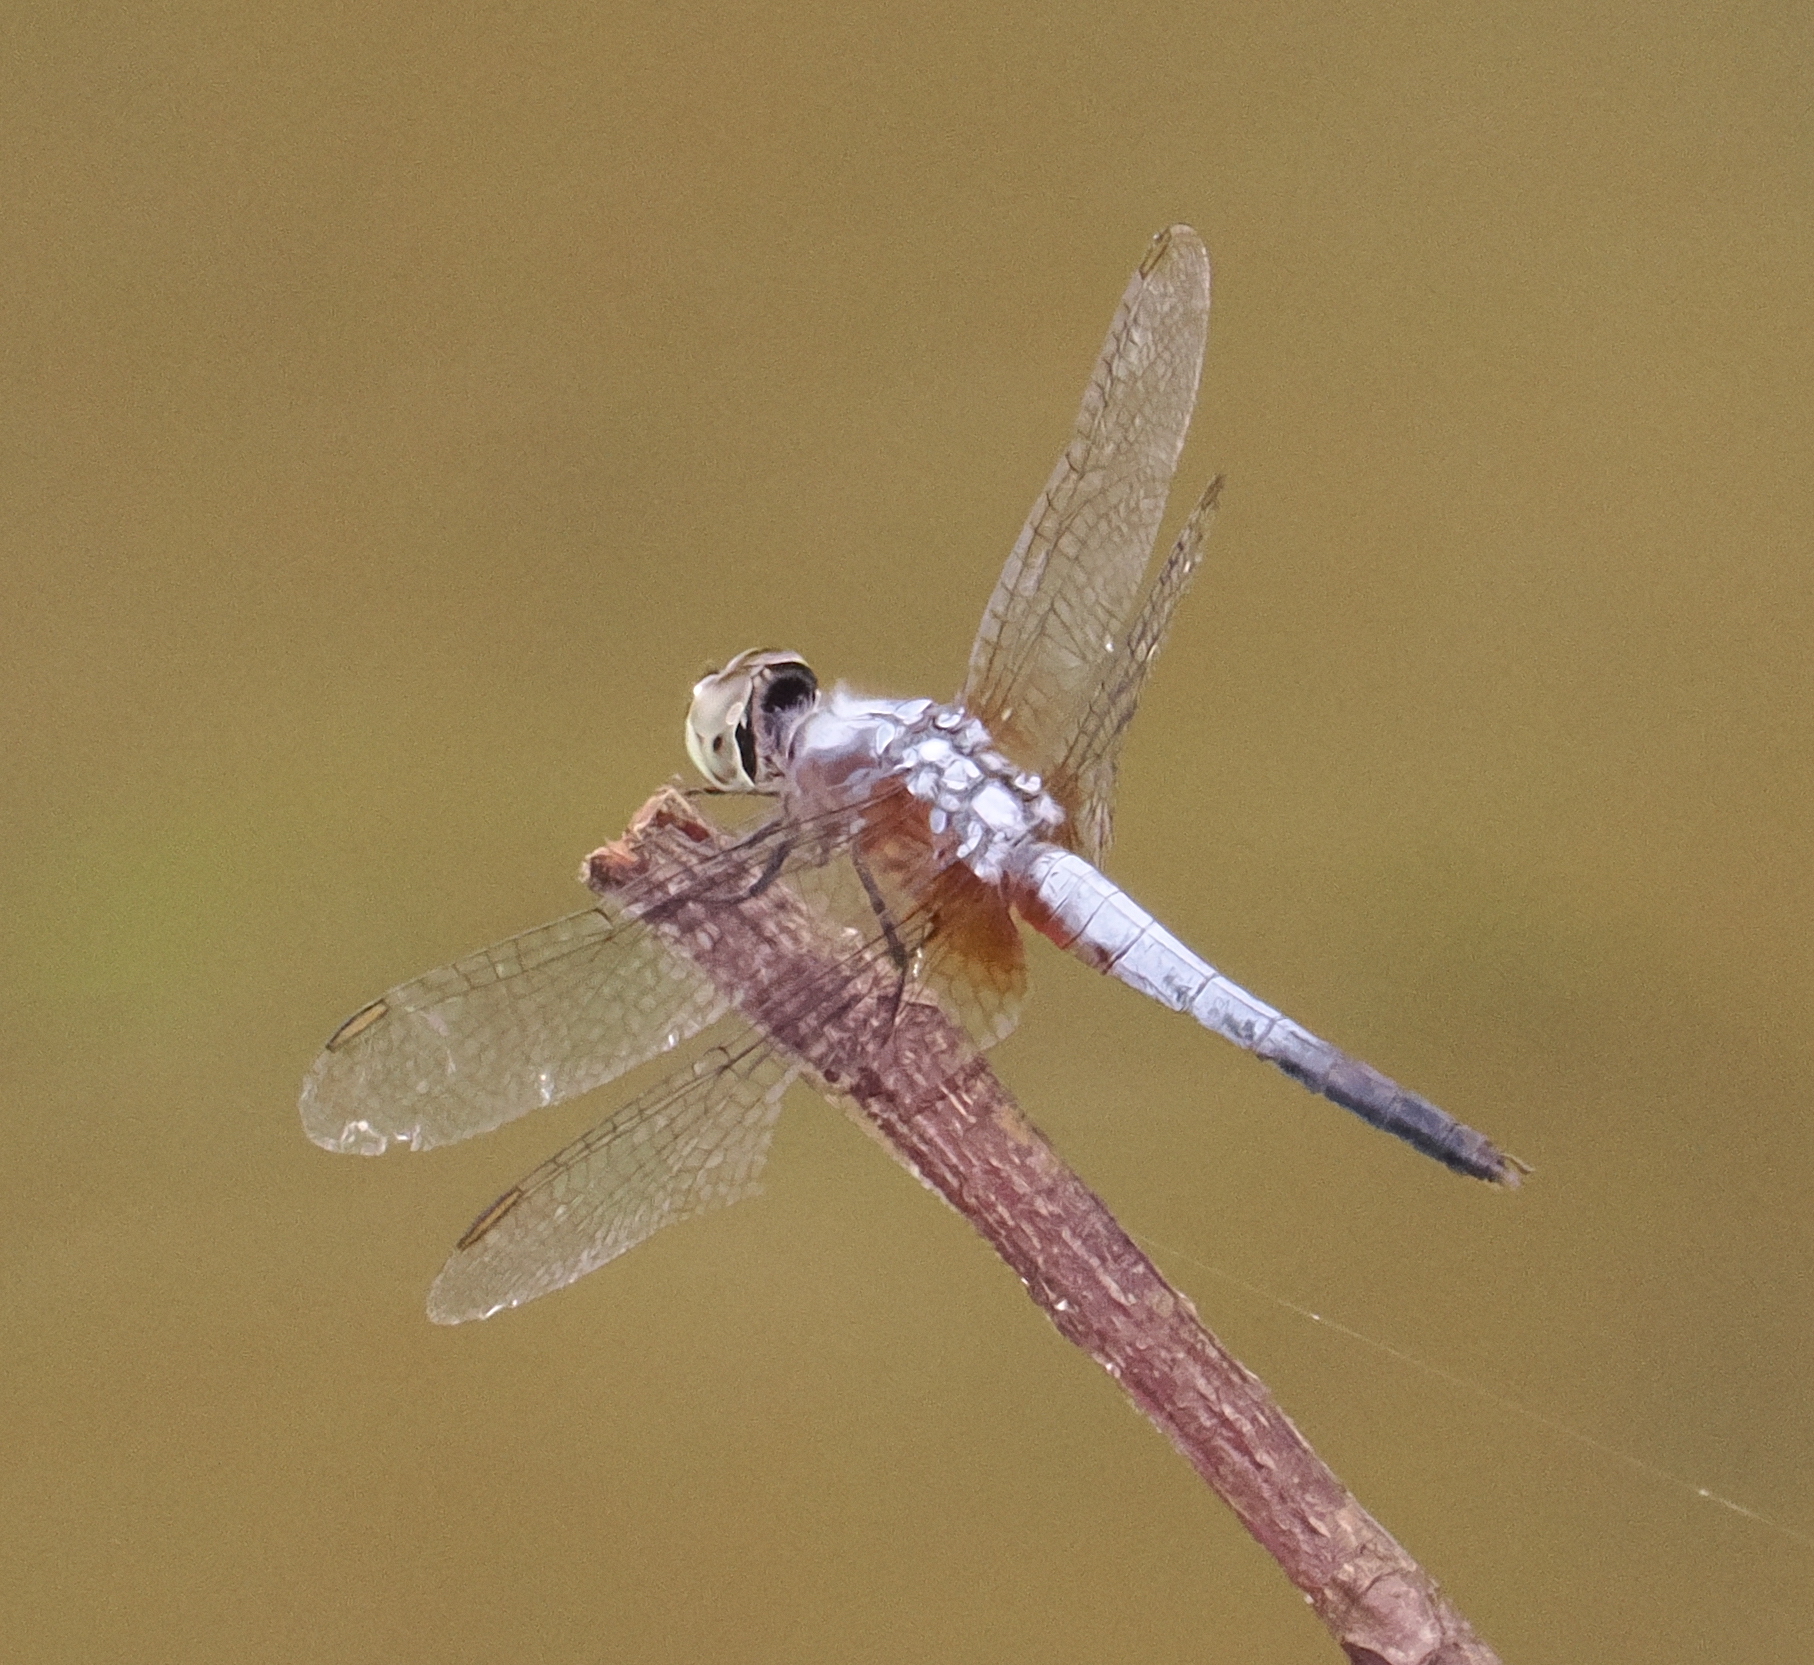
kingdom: Animalia
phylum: Arthropoda
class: Insecta
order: Odonata
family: Libellulidae
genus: Brachydiplax
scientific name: Brachydiplax chalybea
